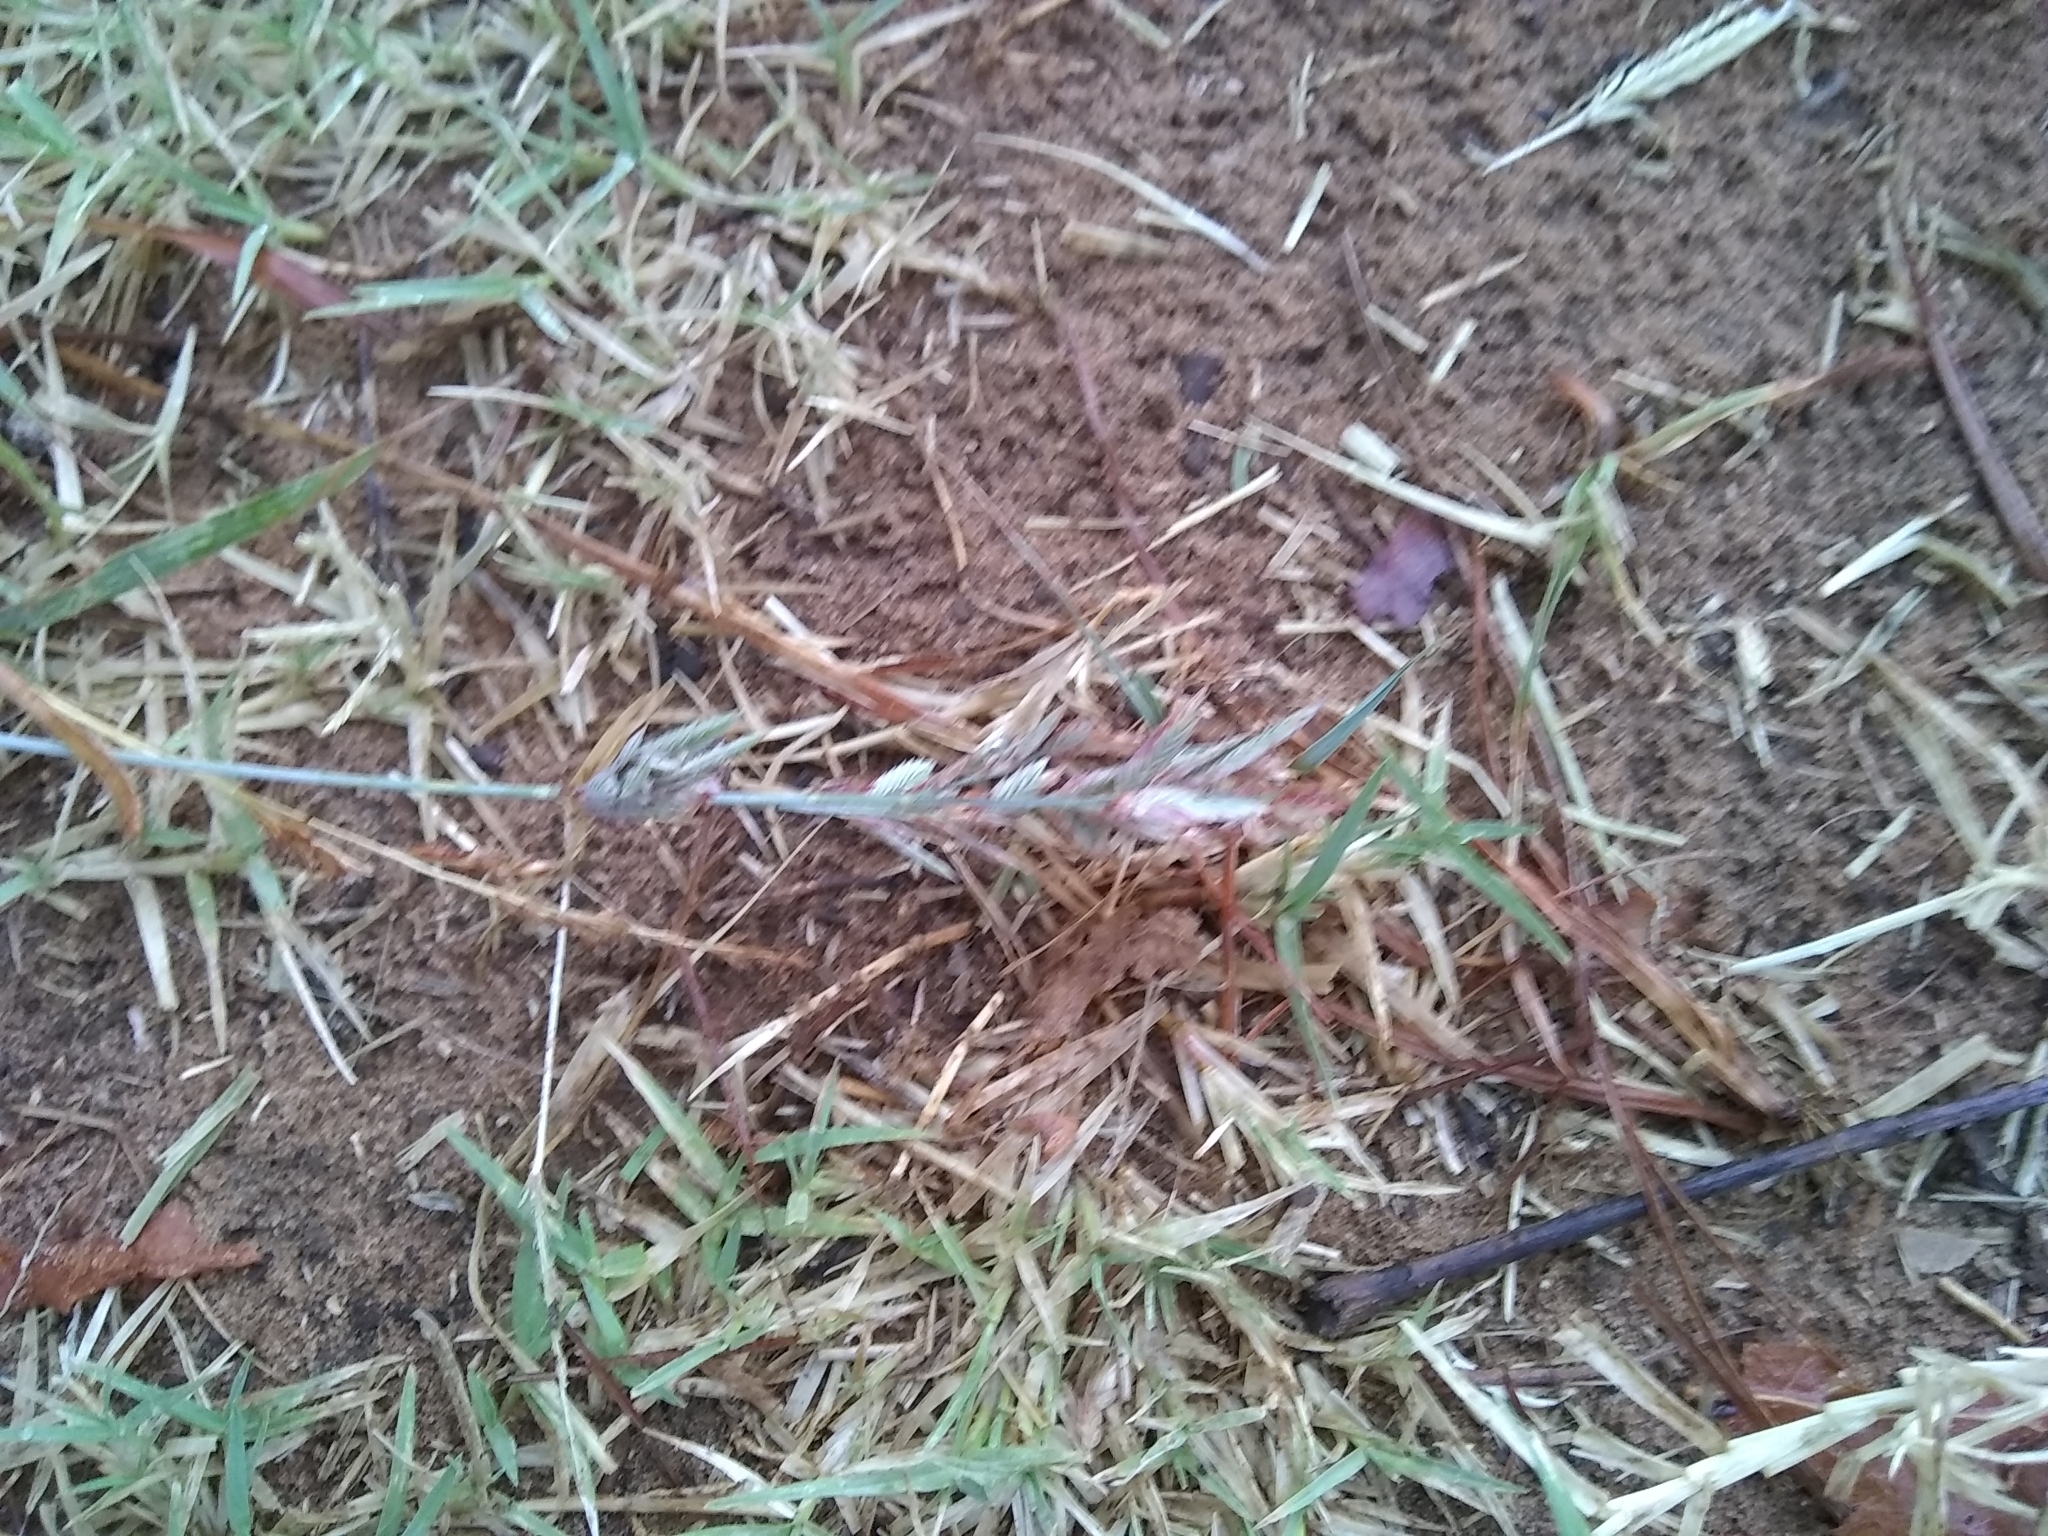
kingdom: Plantae
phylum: Tracheophyta
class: Liliopsida
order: Poales
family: Poaceae
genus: Eragrostis
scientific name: Eragrostis secundiflora
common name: Red love grass
